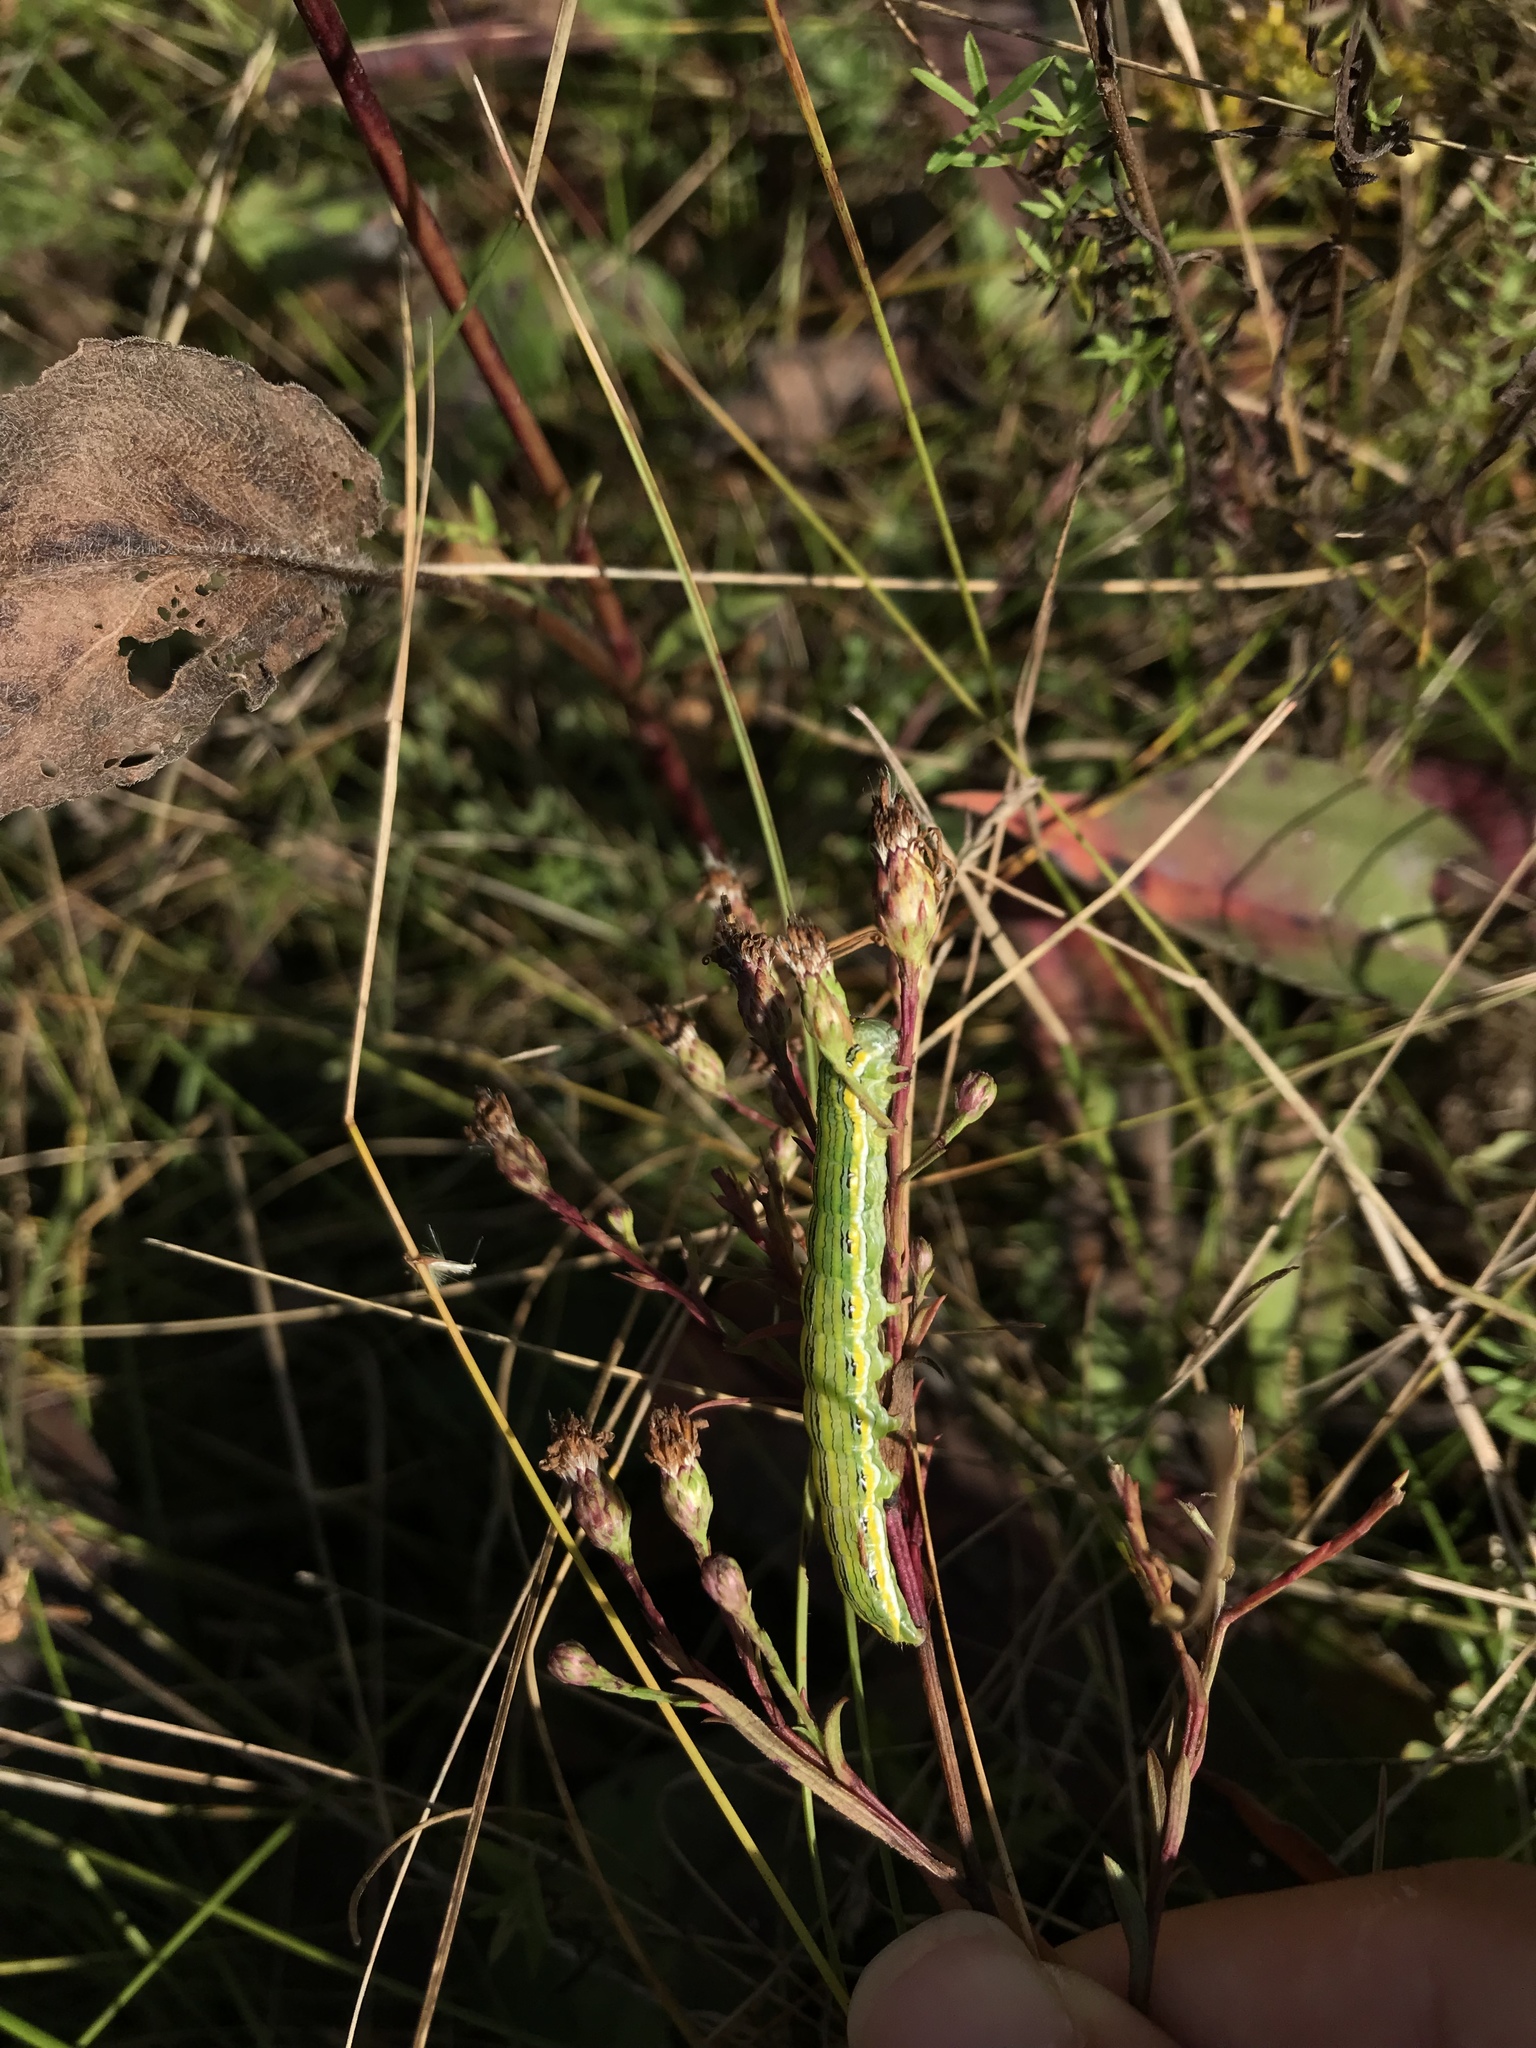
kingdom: Animalia
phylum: Arthropoda
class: Insecta
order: Lepidoptera
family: Noctuidae
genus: Cucullia
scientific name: Cucullia asteroides
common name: Asteroid moth
